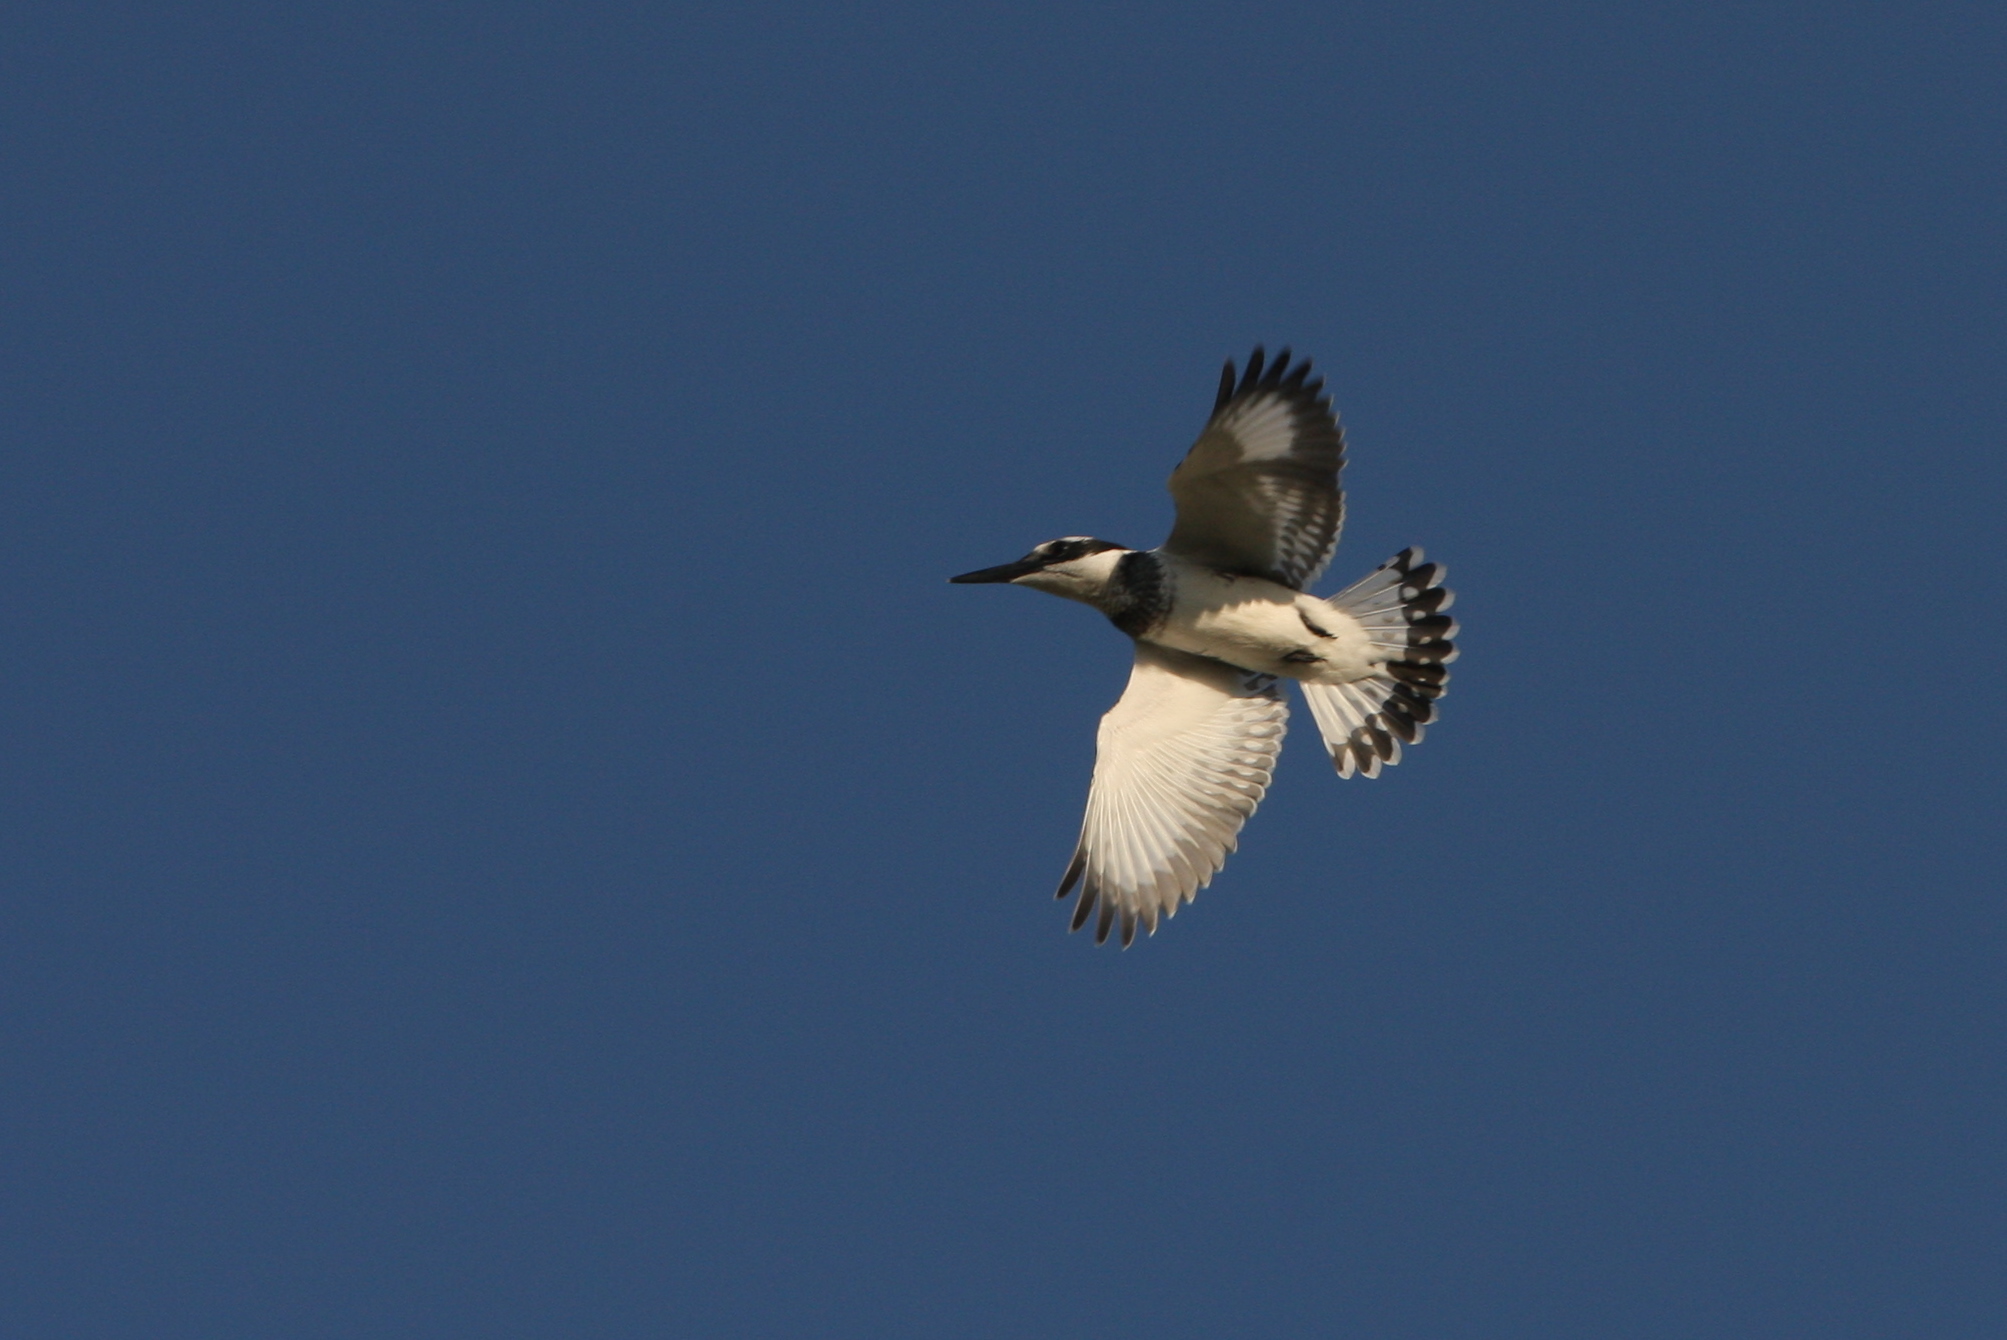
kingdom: Animalia
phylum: Chordata
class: Aves
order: Coraciiformes
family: Alcedinidae
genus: Ceryle
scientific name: Ceryle rudis
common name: Pied kingfisher
